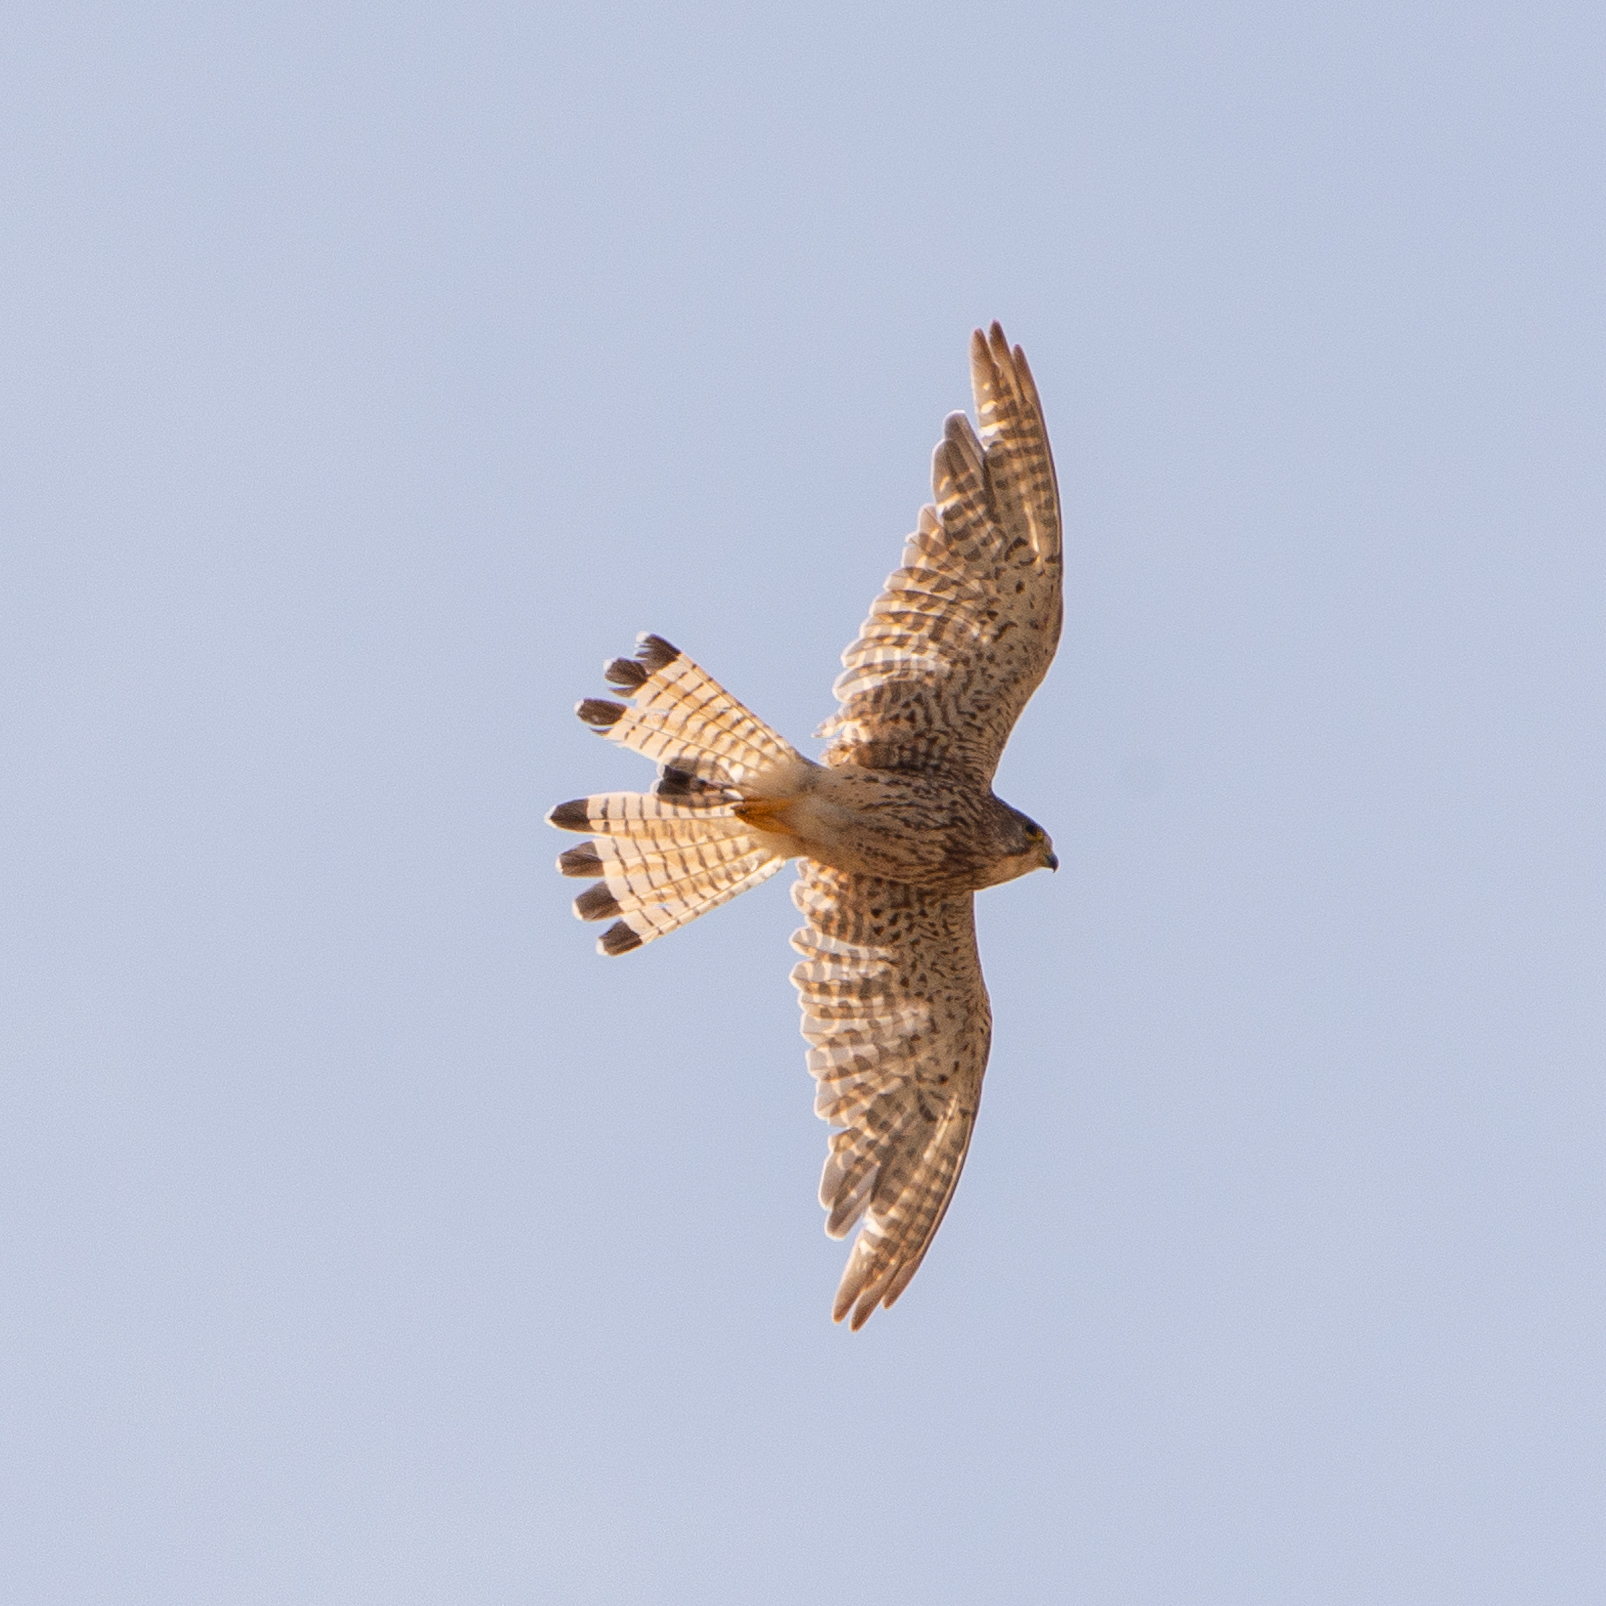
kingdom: Animalia
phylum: Chordata
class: Aves
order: Falconiformes
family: Falconidae
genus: Falco
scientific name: Falco tinnunculus
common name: Common kestrel
